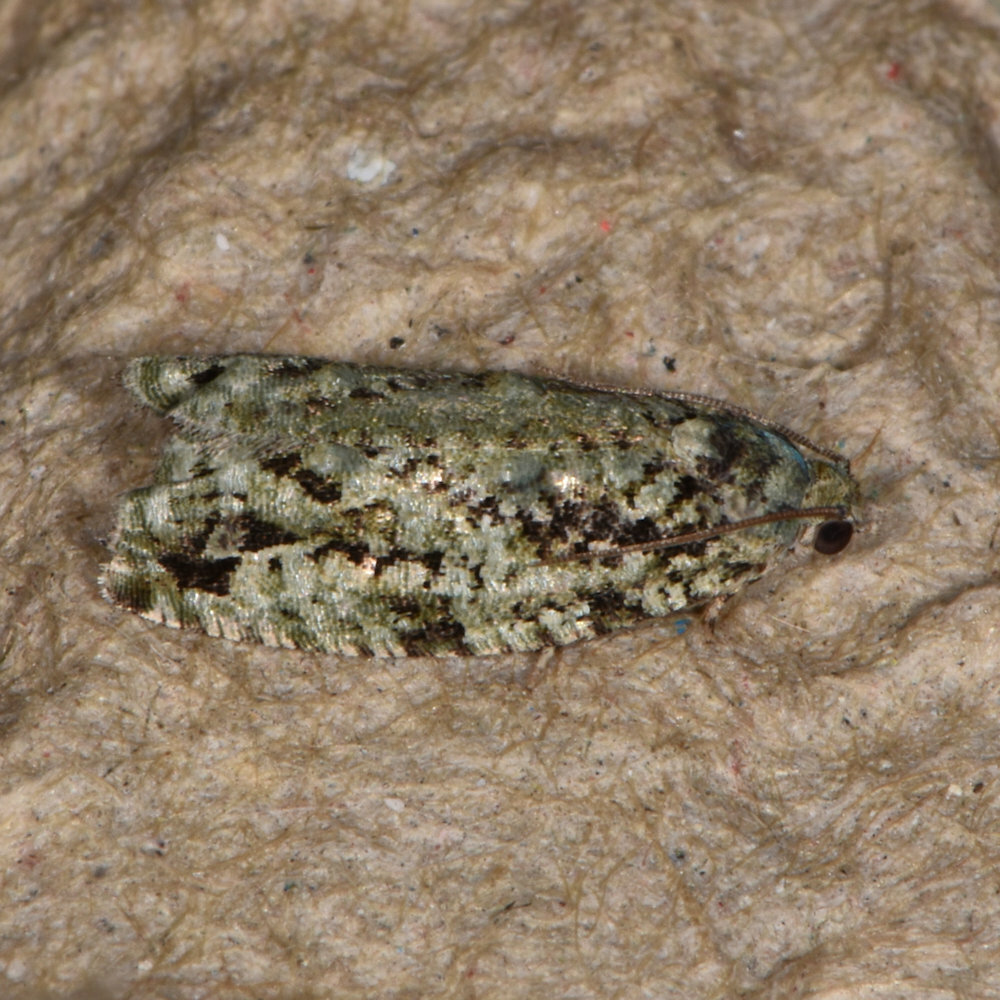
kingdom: Animalia
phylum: Arthropoda
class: Insecta
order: Lepidoptera
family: Tortricidae
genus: Proteoteras
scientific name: Proteoteras moffatiana
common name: Maple bud borer moth
